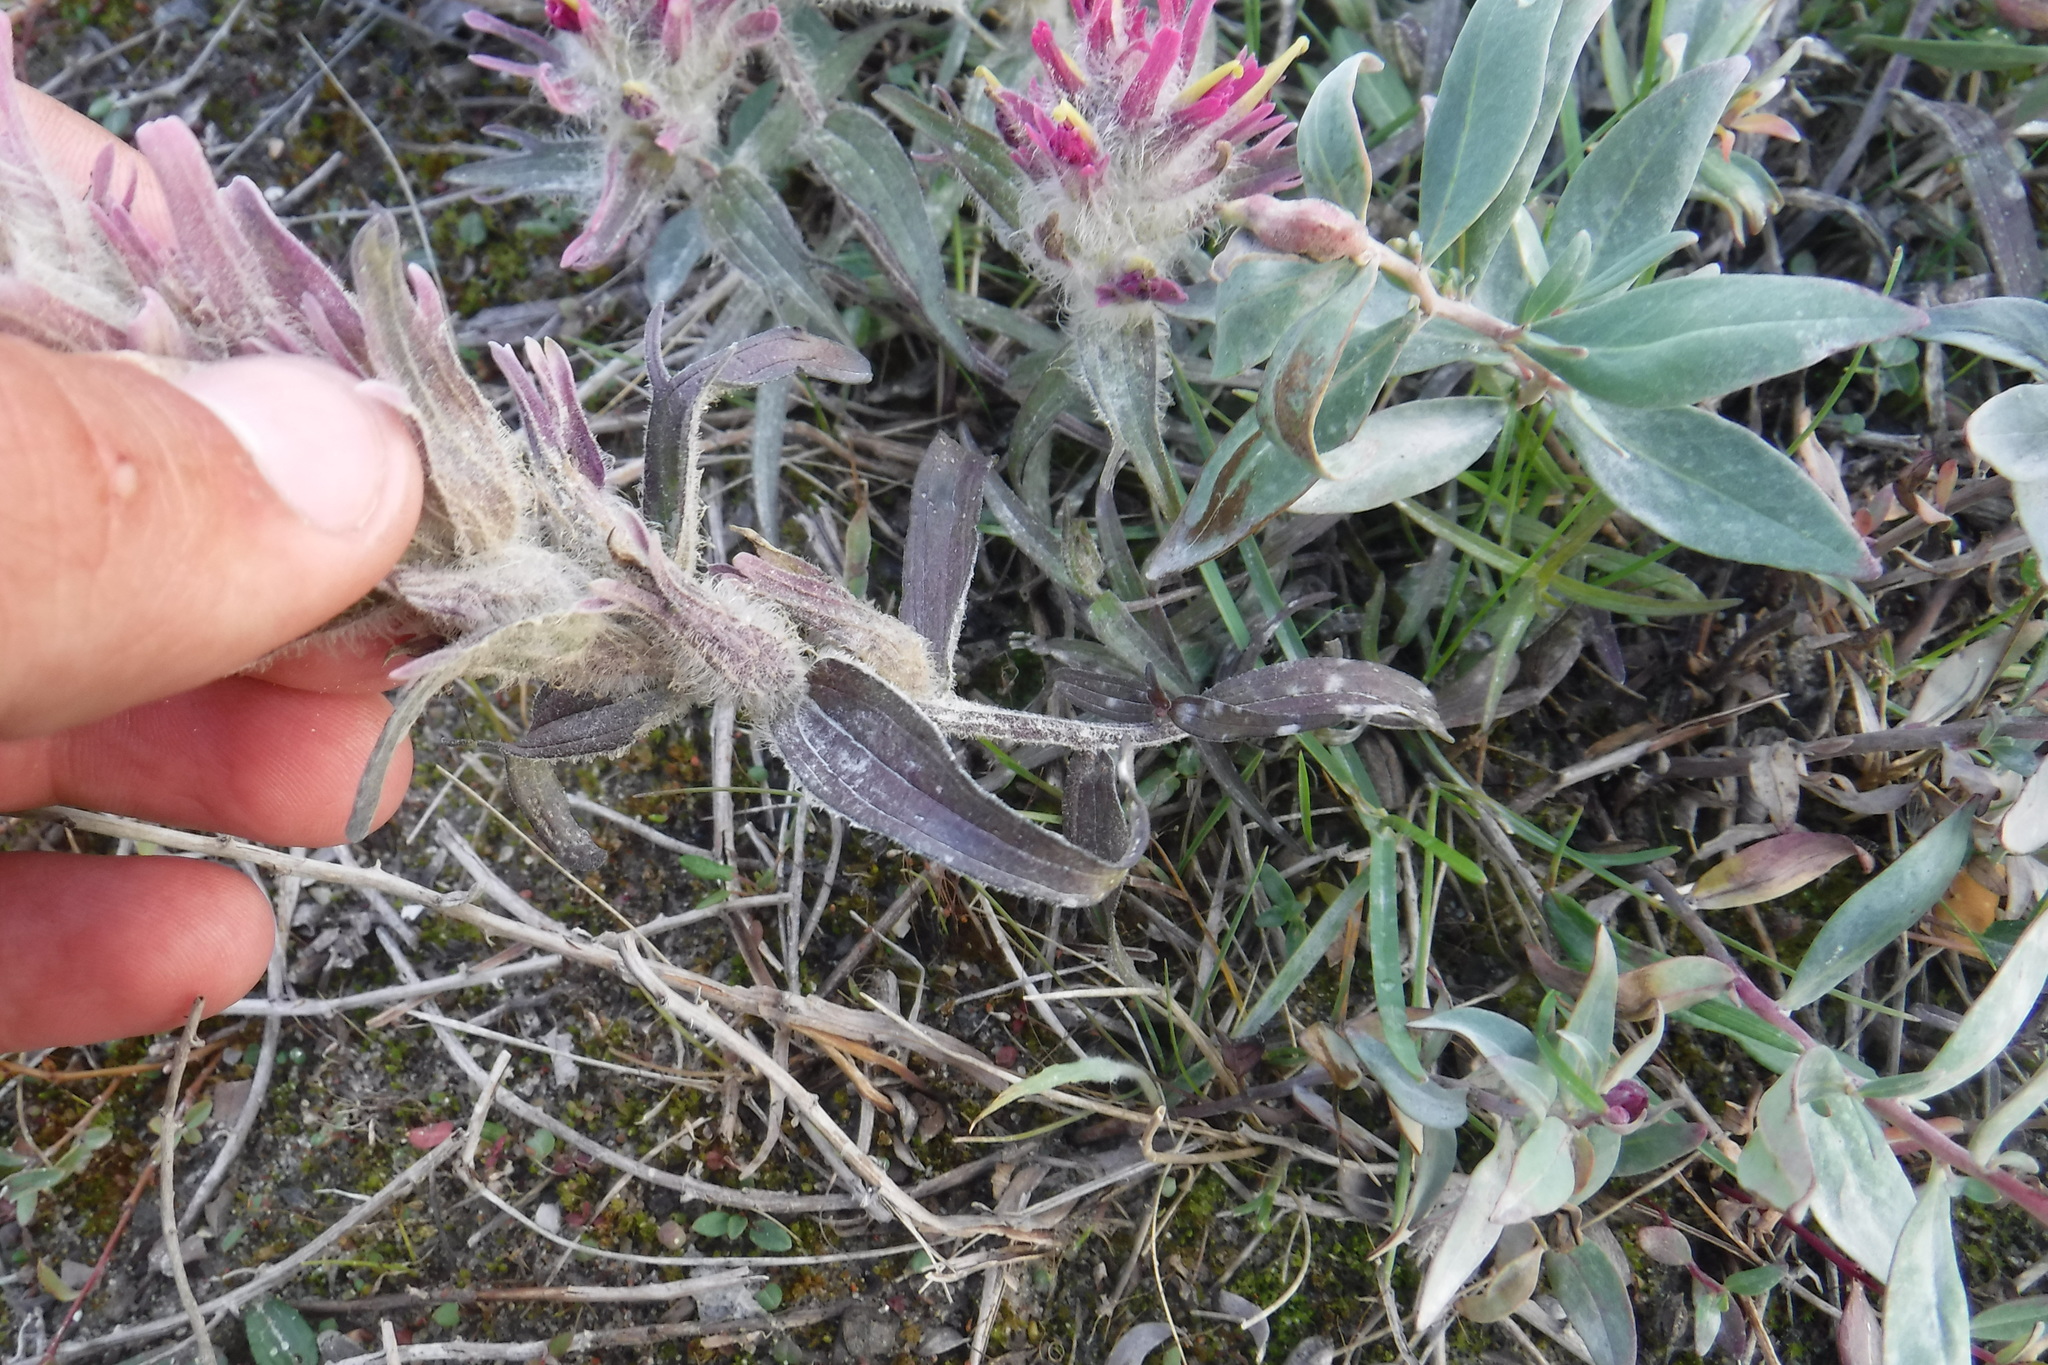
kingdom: Plantae
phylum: Tracheophyta
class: Magnoliopsida
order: Lamiales
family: Orobanchaceae
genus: Castilleja
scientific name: Castilleja elegans
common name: Elegant paintbrush
